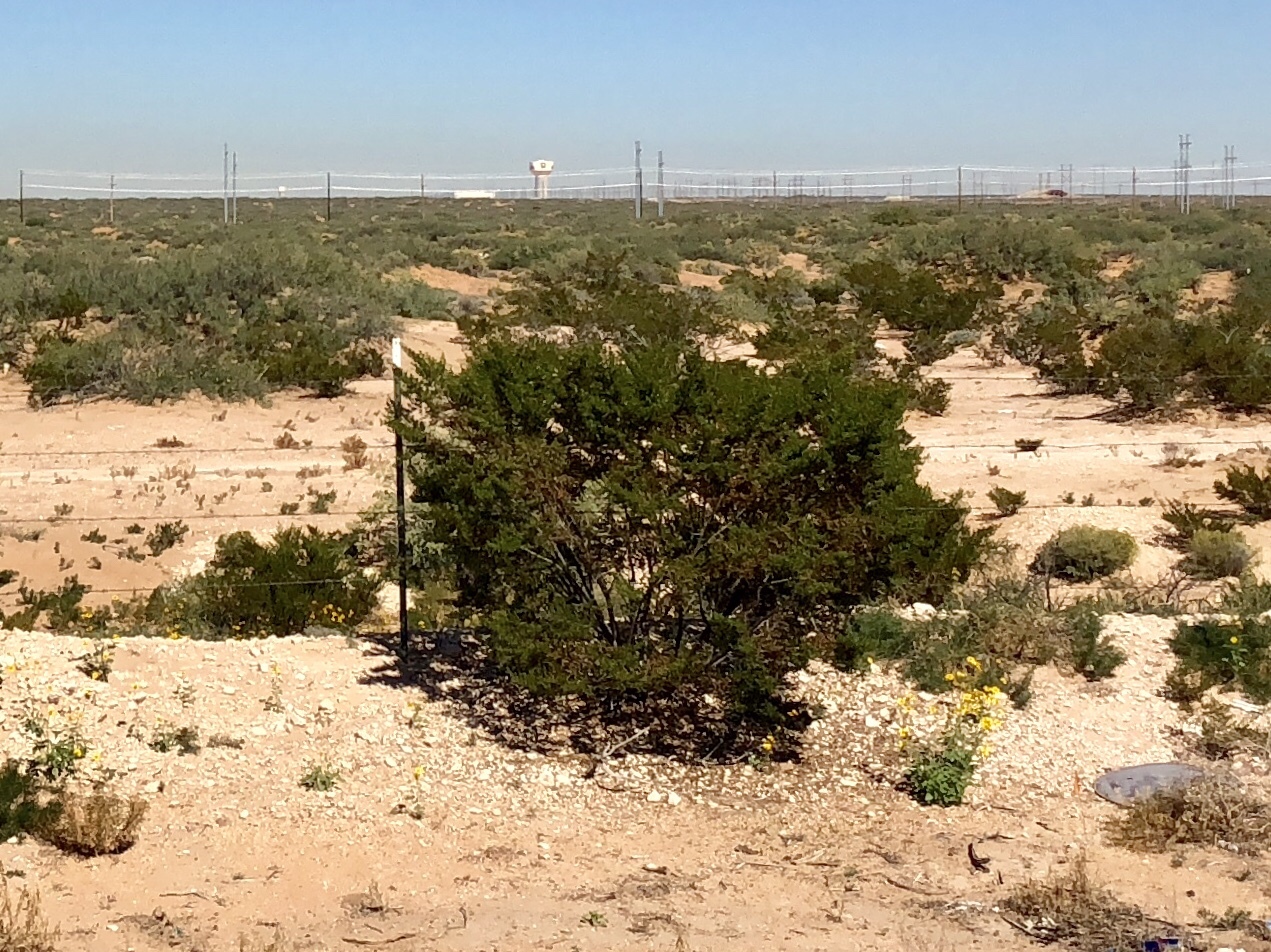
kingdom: Plantae
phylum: Tracheophyta
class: Magnoliopsida
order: Zygophyllales
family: Zygophyllaceae
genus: Larrea
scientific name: Larrea tridentata
